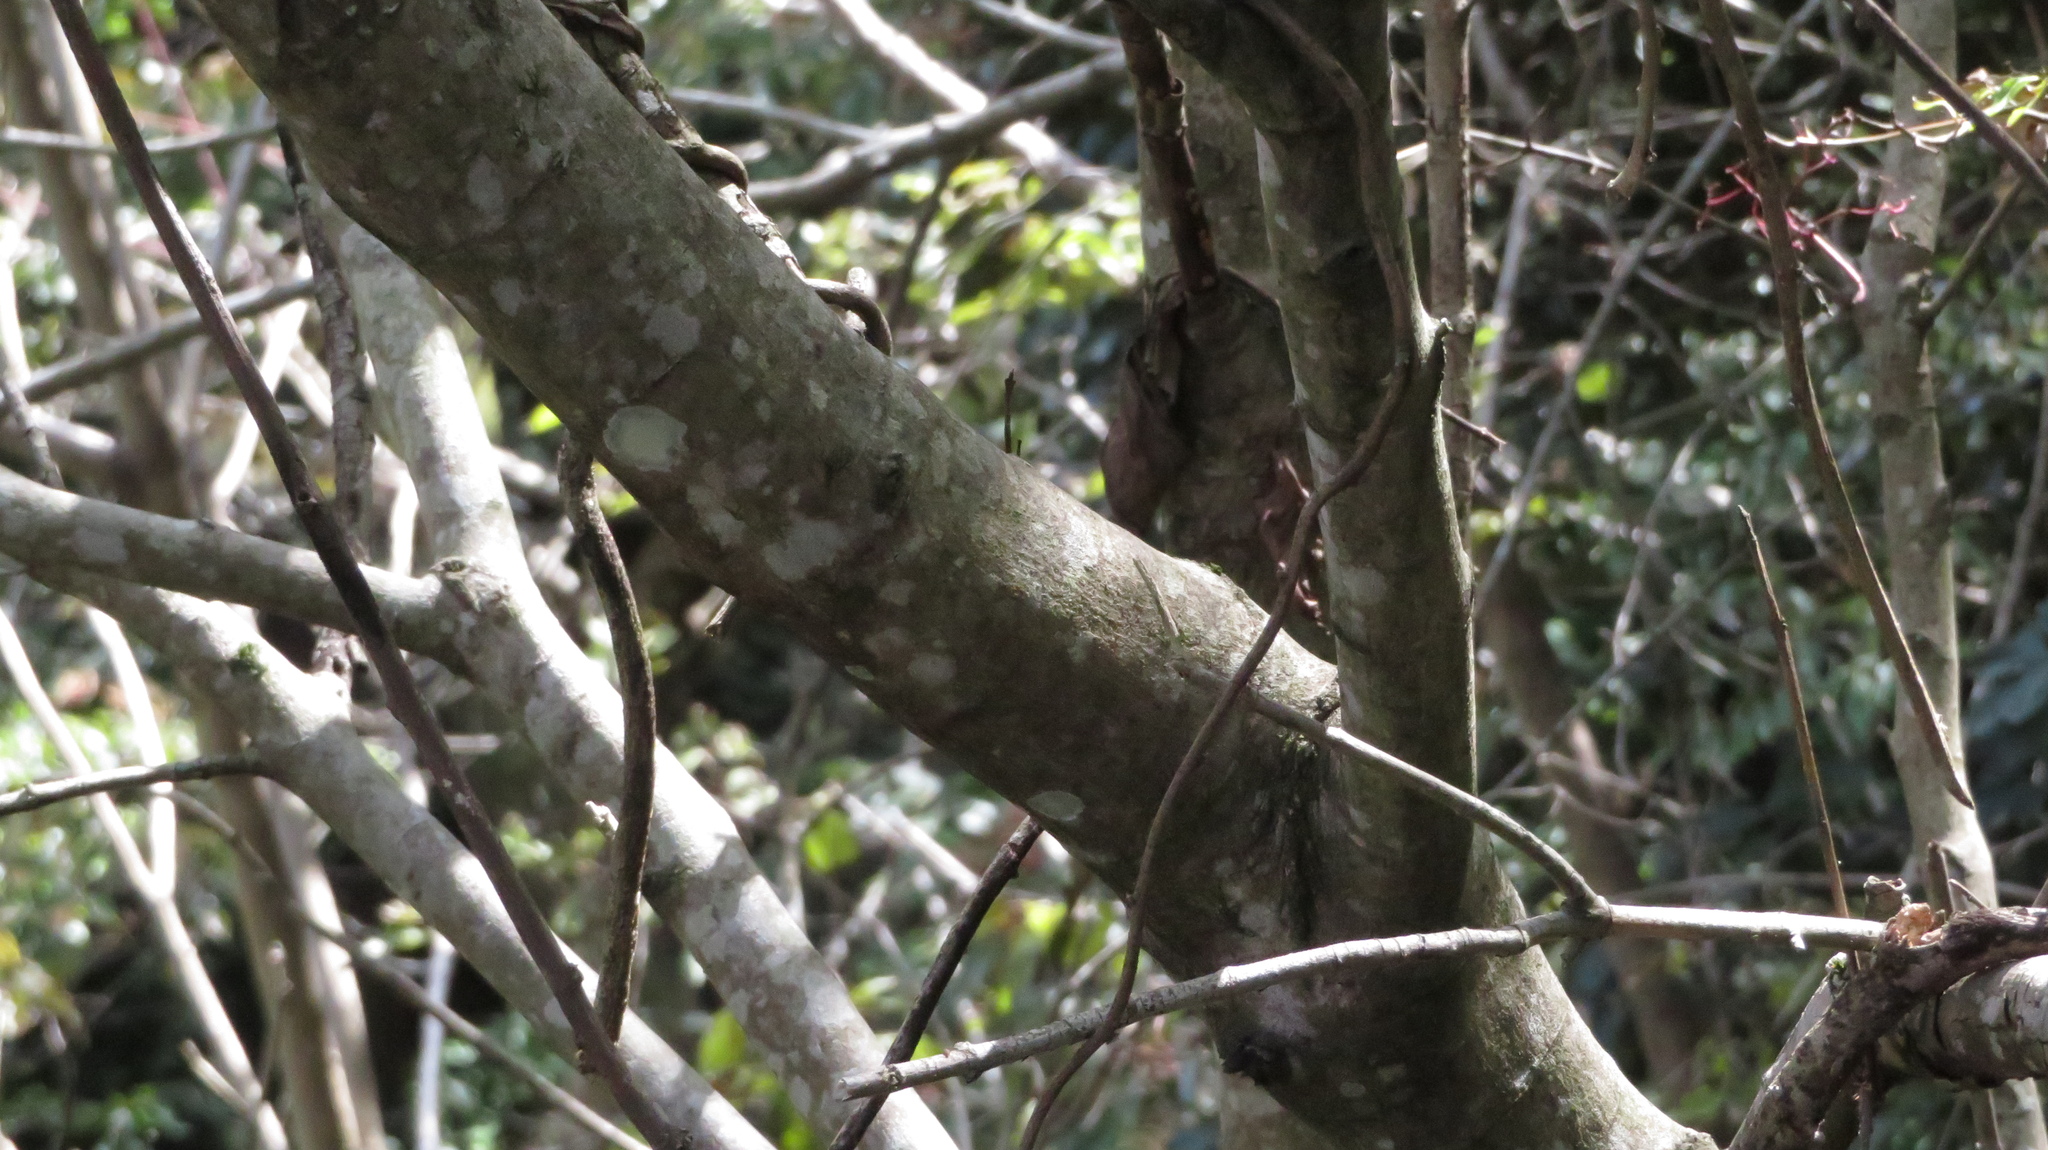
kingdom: Plantae
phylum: Tracheophyta
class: Magnoliopsida
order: Cornales
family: Cornaceae
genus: Cornus
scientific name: Cornus macrophylla
